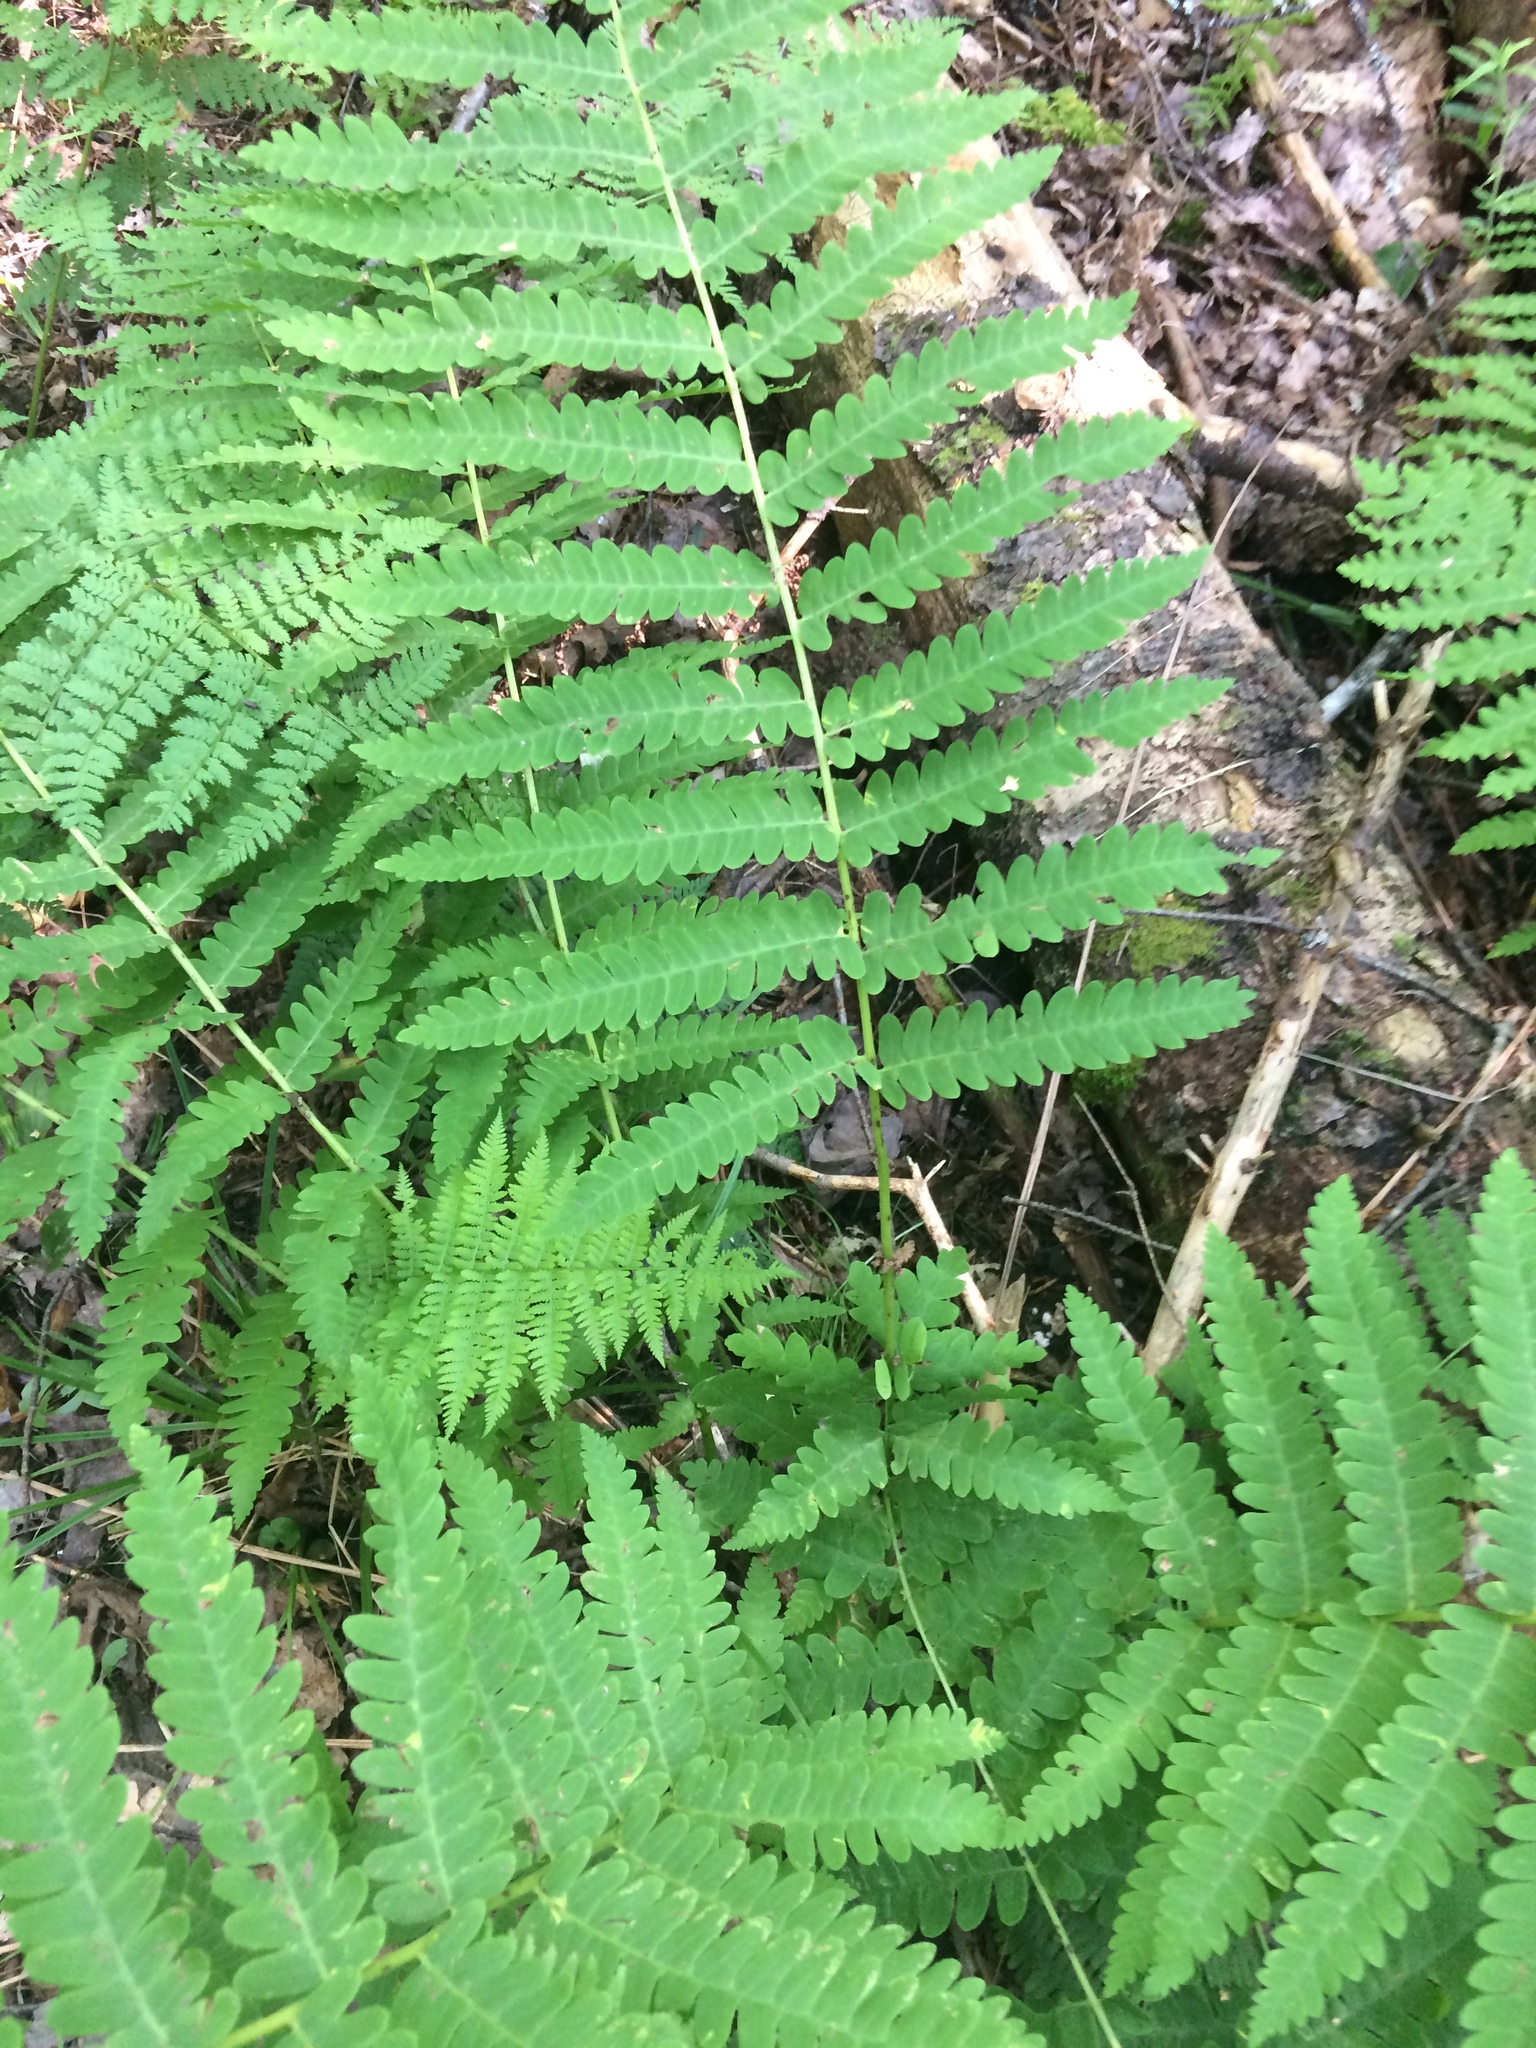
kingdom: Plantae
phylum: Tracheophyta
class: Polypodiopsida
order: Osmundales
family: Osmundaceae
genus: Claytosmunda
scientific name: Claytosmunda claytoniana
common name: Clayton's fern
